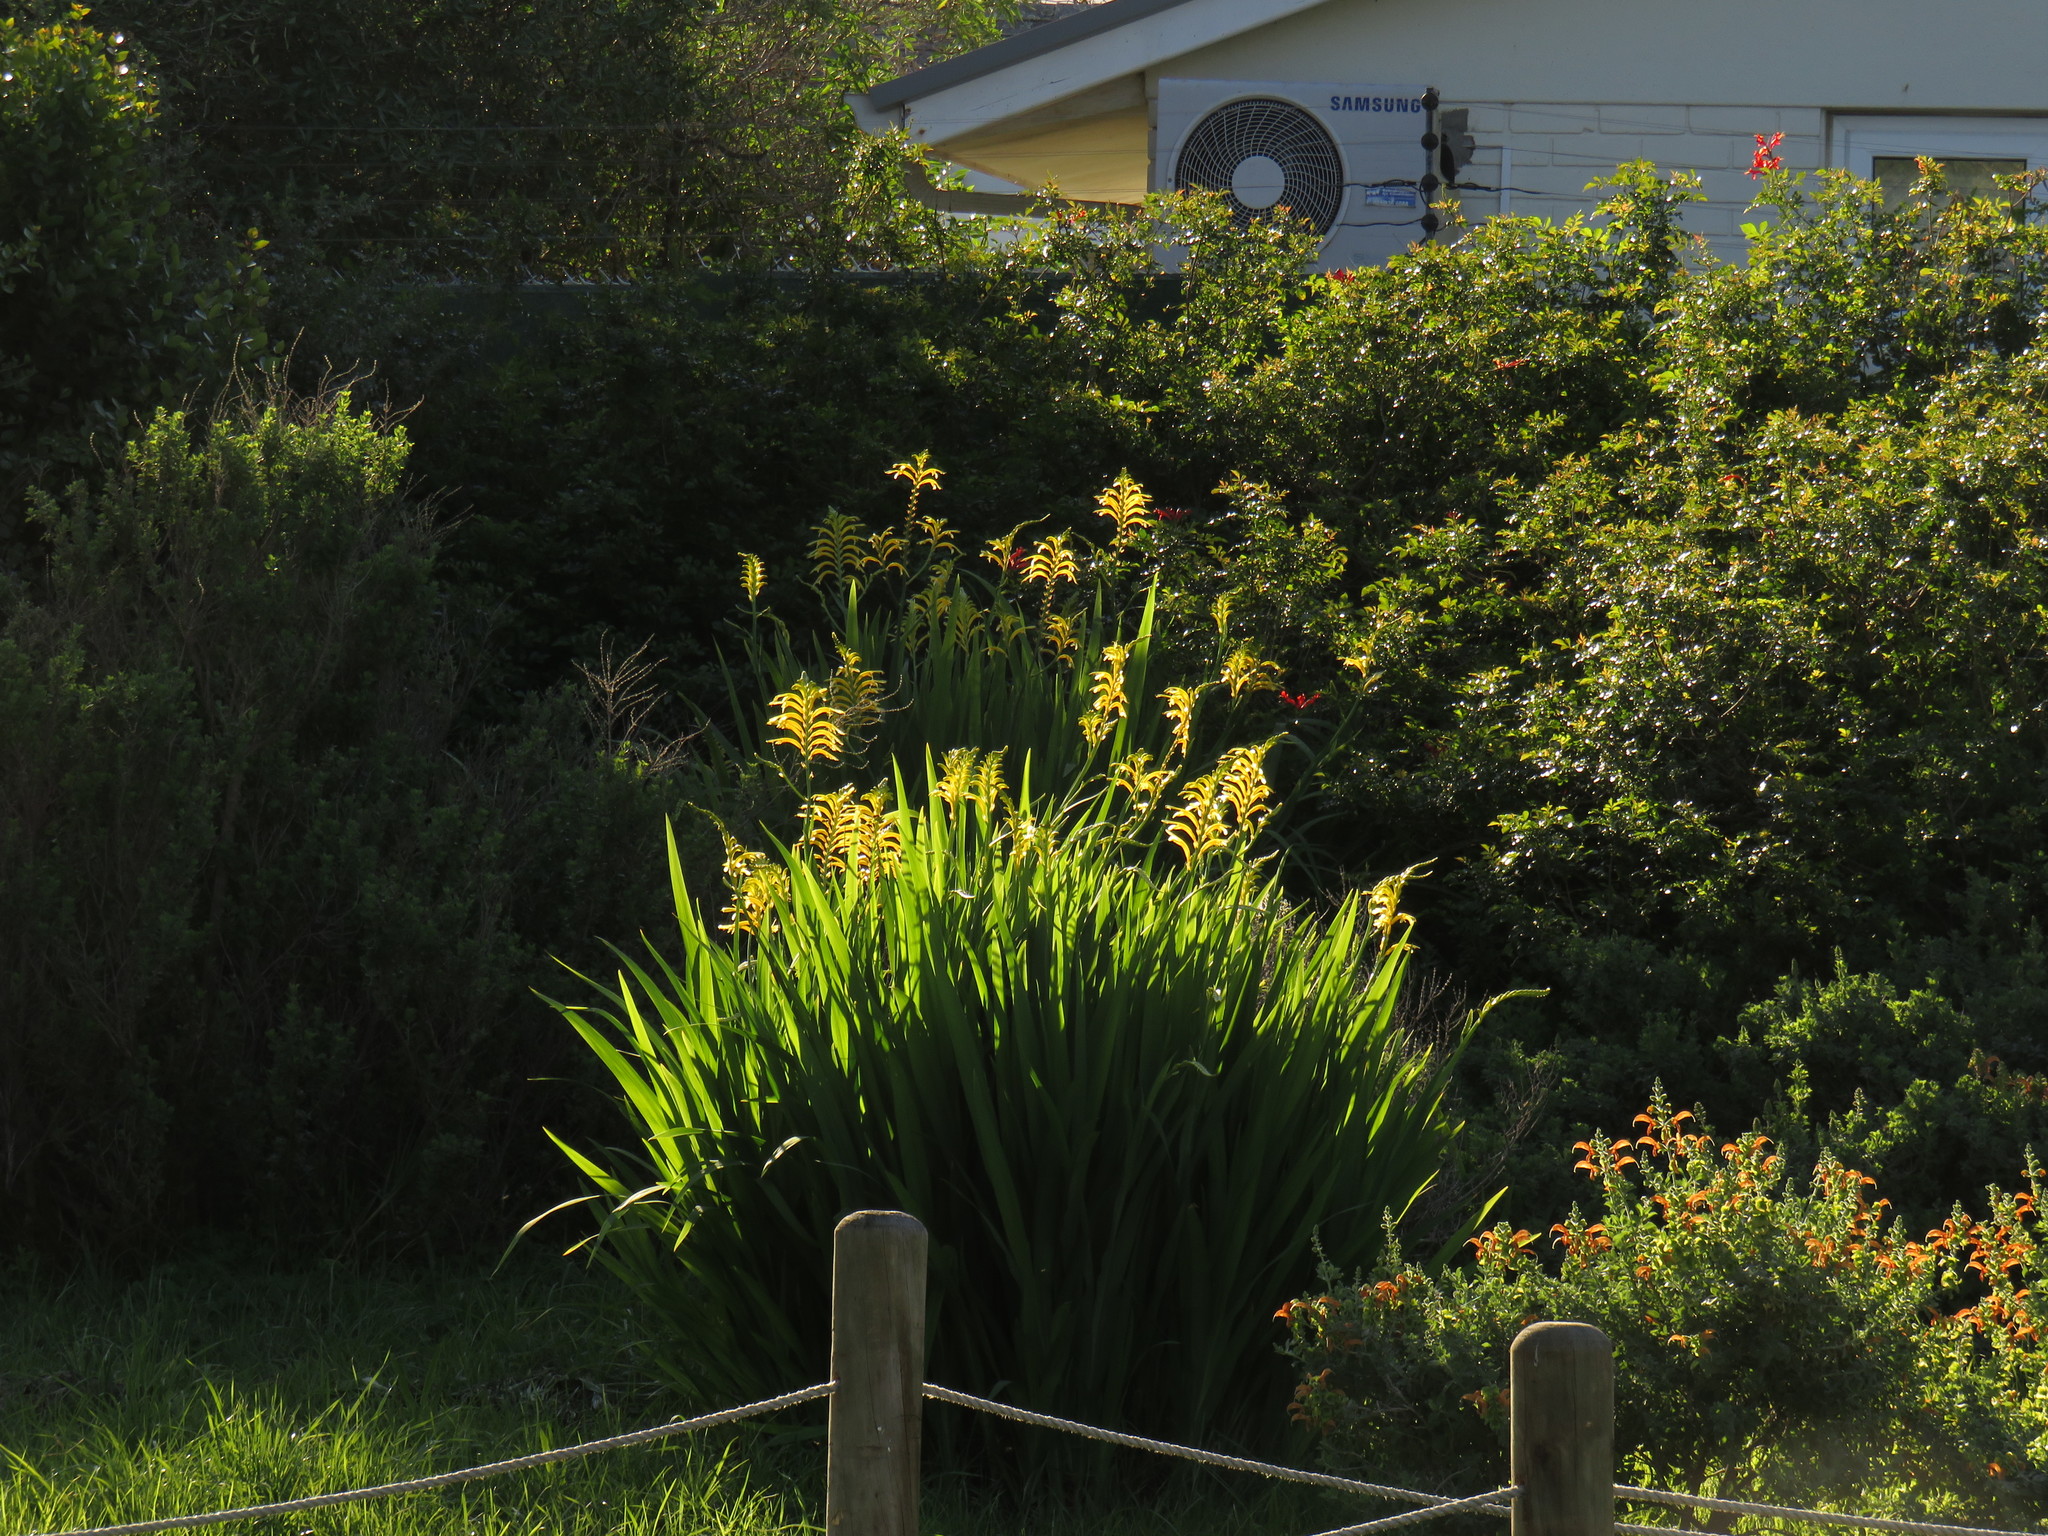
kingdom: Plantae
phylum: Tracheophyta
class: Liliopsida
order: Asparagales
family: Iridaceae
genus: Chasmanthe
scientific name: Chasmanthe floribunda
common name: African cornflag
